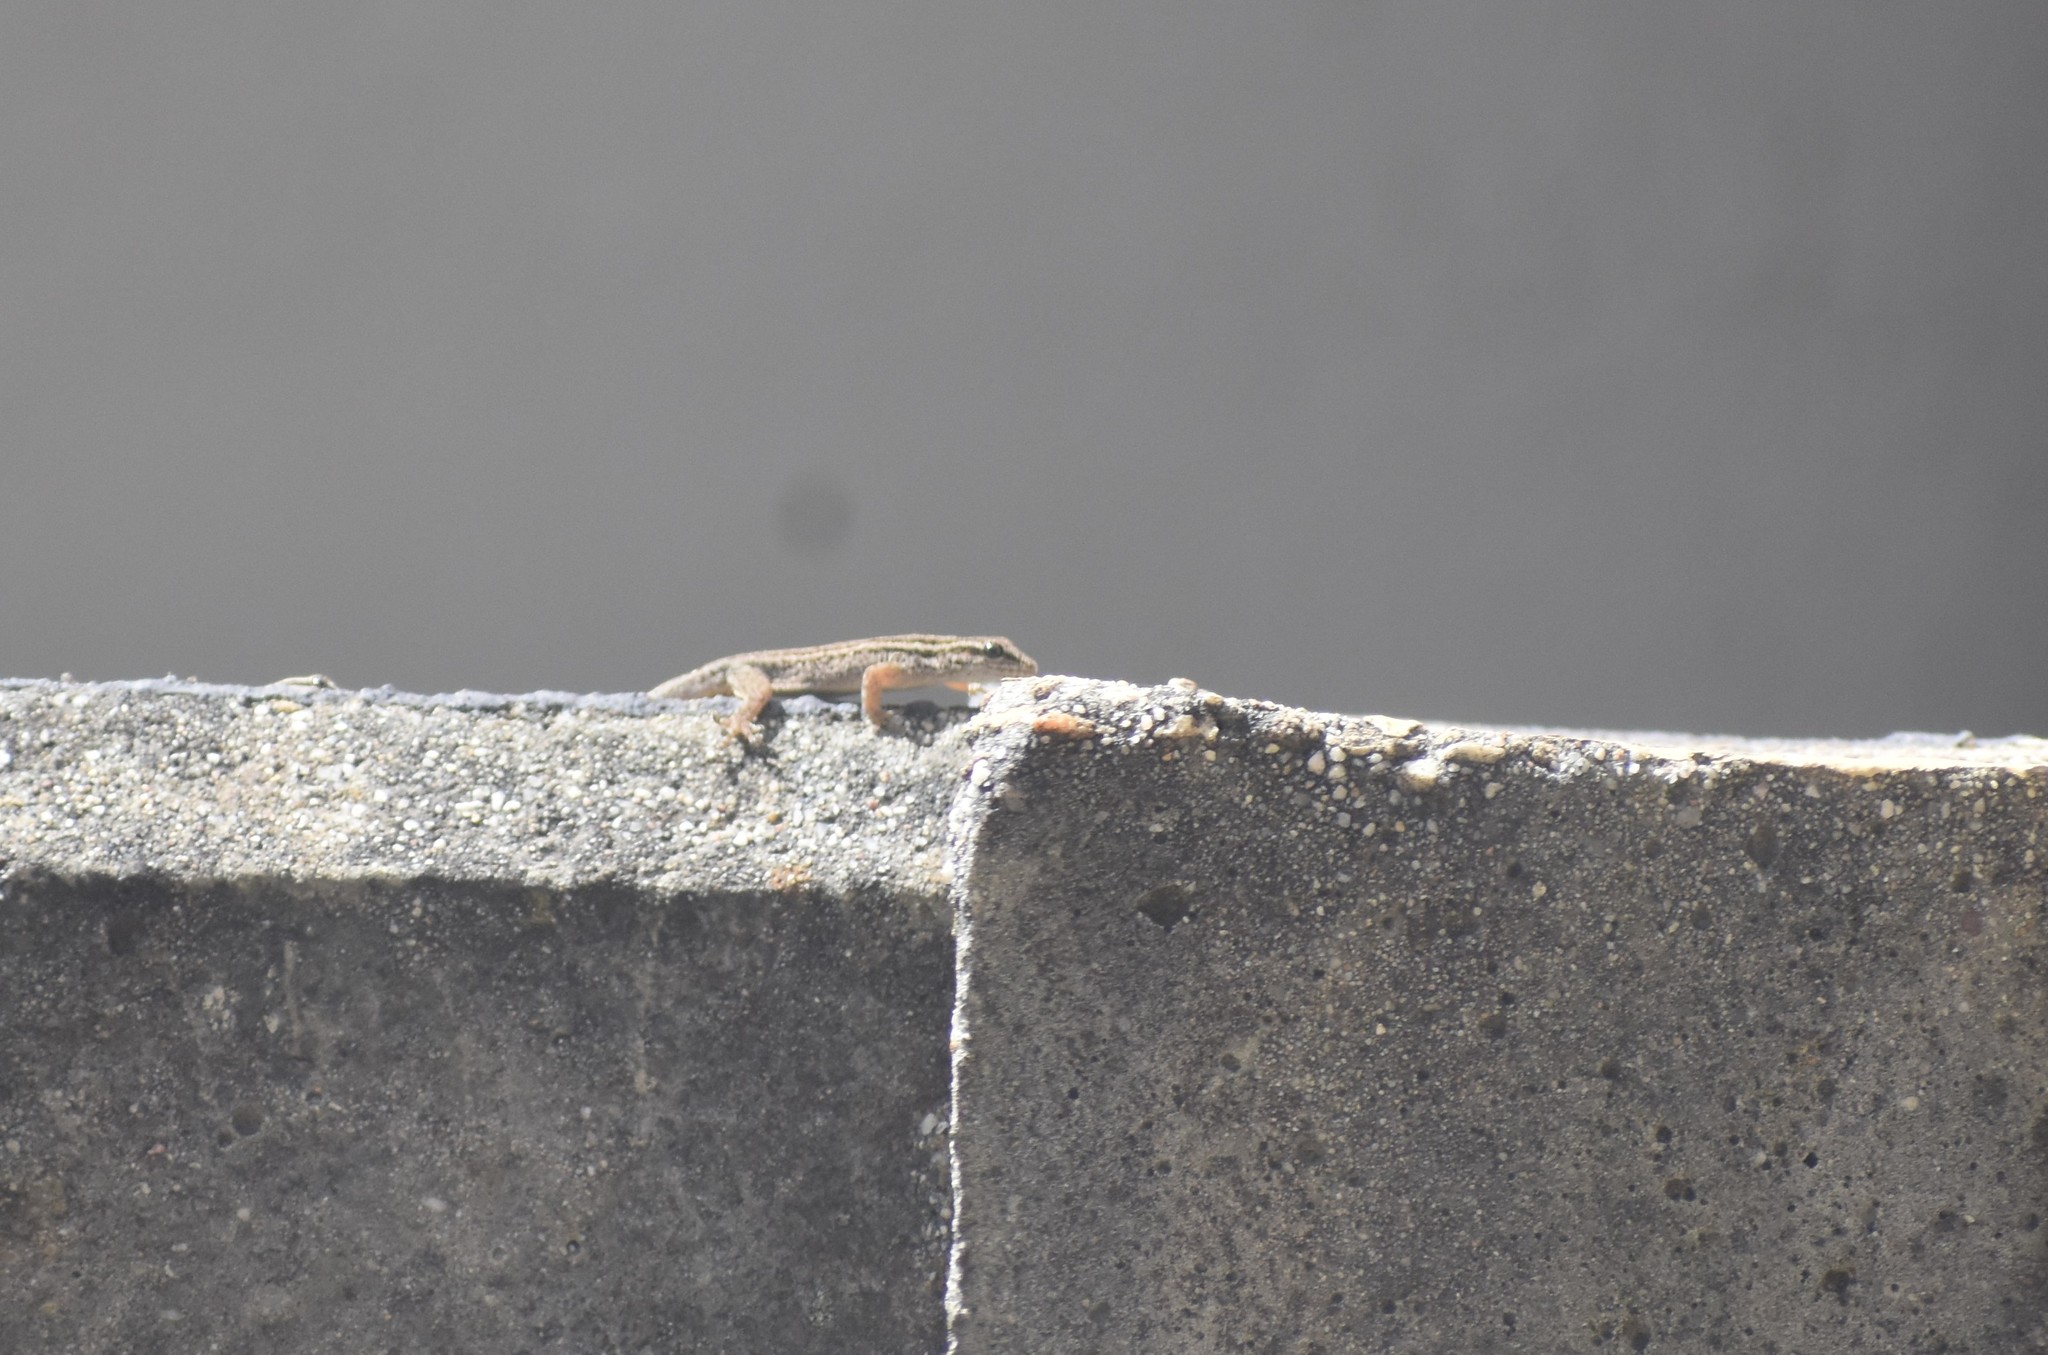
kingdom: Animalia
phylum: Chordata
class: Squamata
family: Gekkonidae
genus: Lygodactylus
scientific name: Lygodactylus capensis
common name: Cape dwarf gecko
